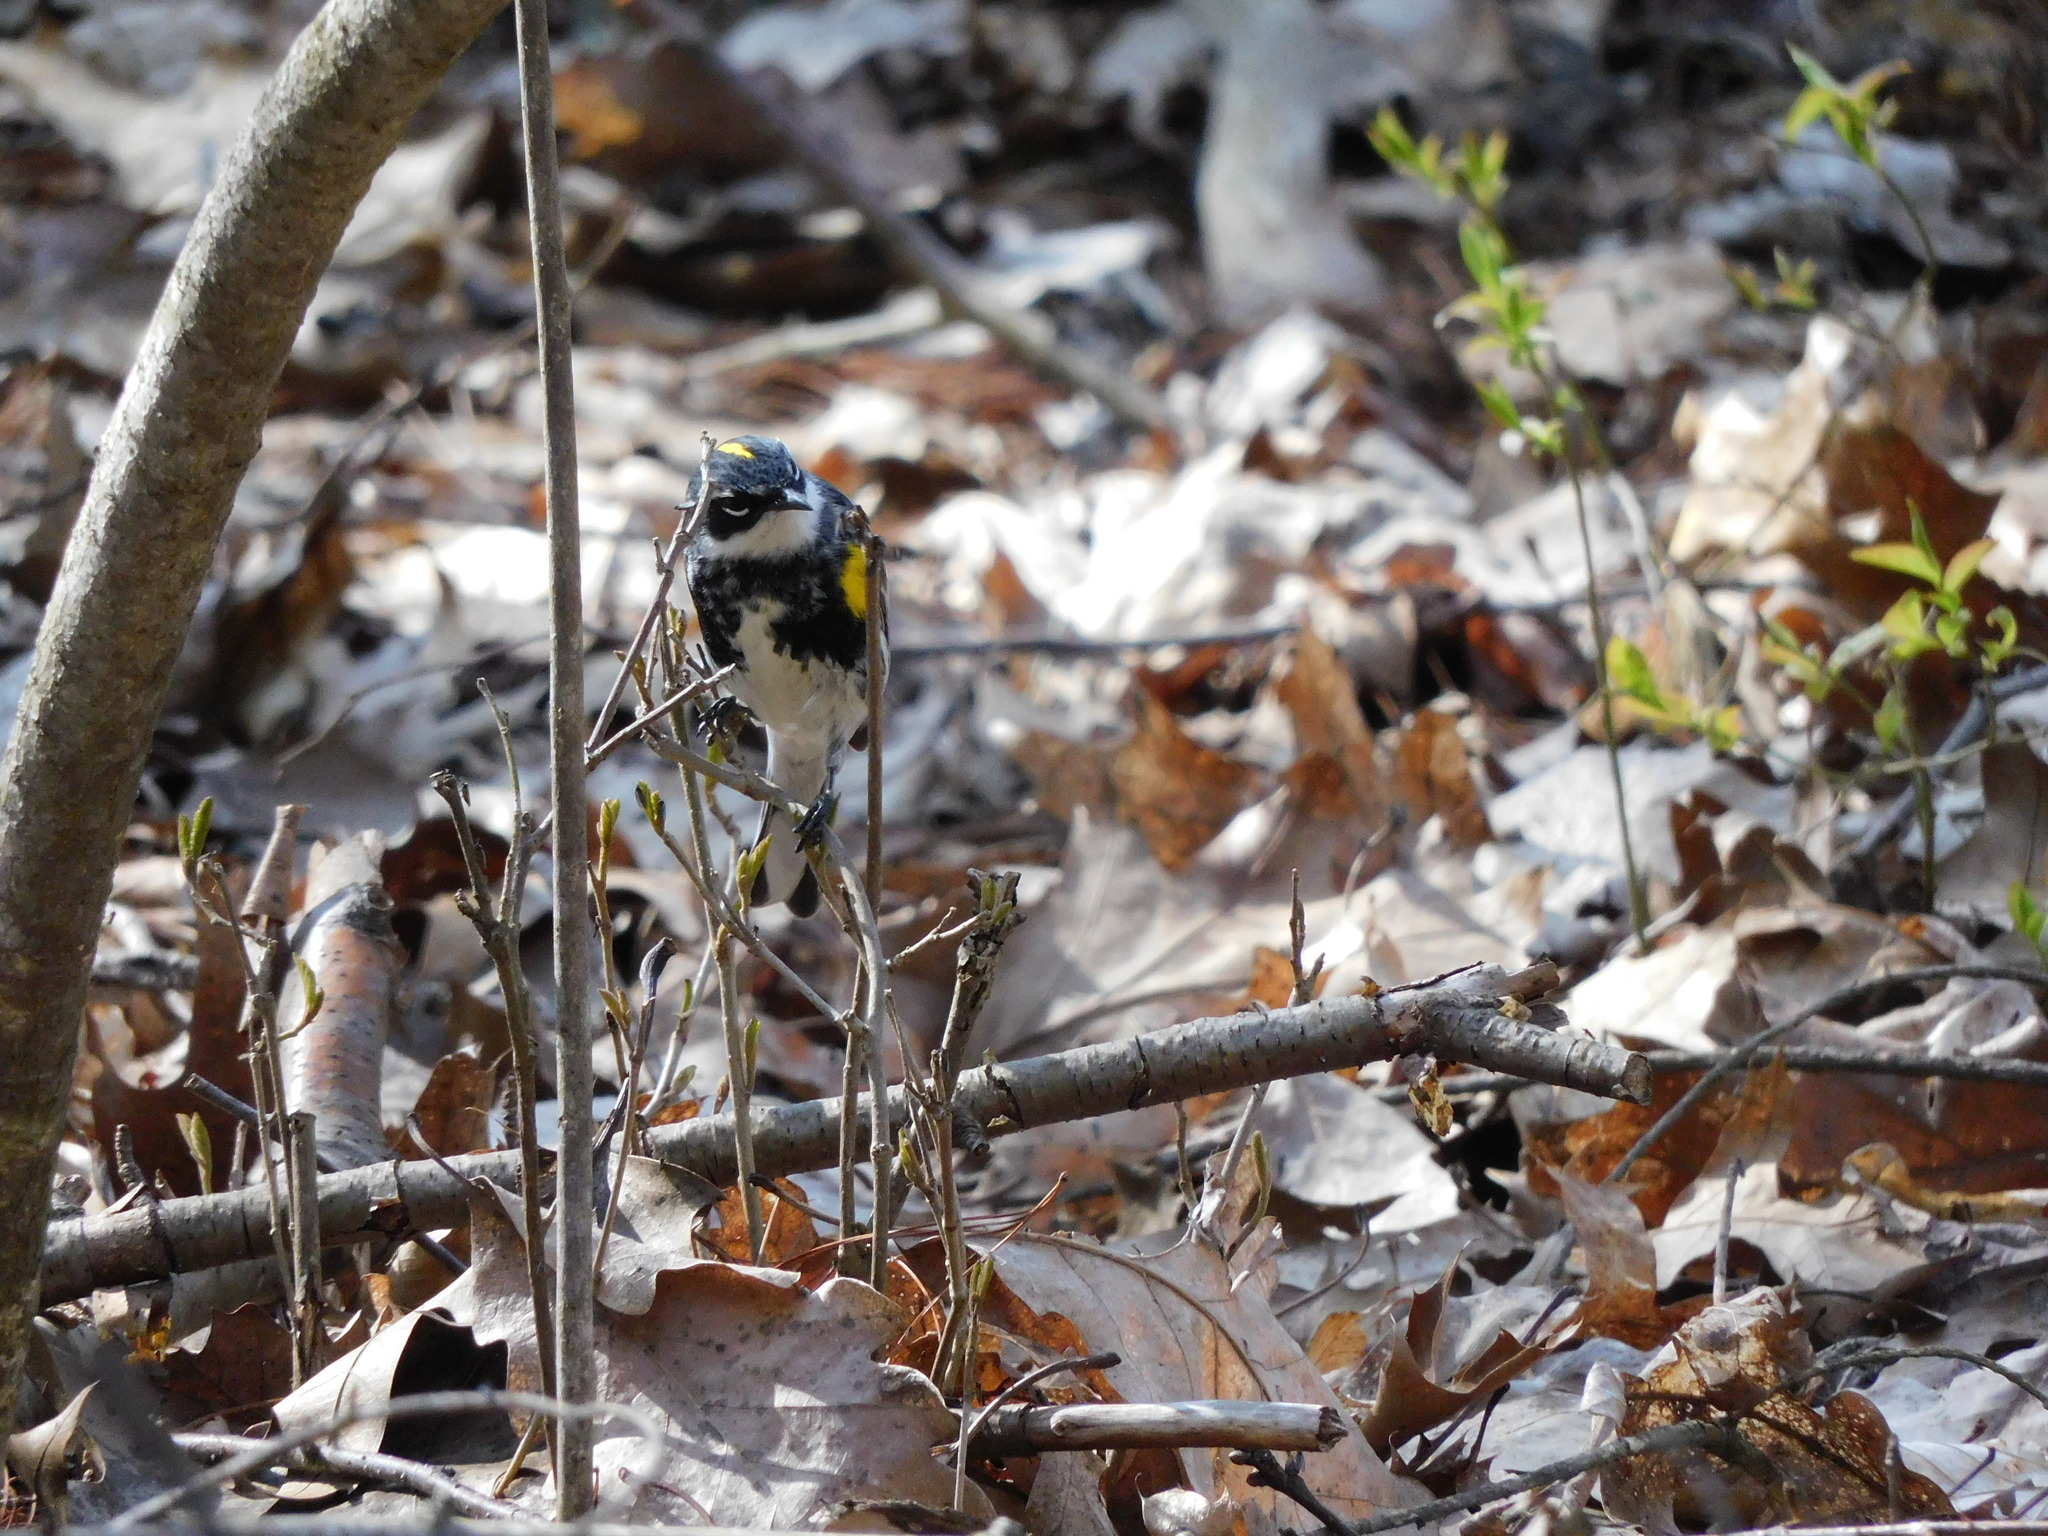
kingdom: Animalia
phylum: Chordata
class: Aves
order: Passeriformes
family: Parulidae
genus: Setophaga
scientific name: Setophaga coronata
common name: Myrtle warbler
